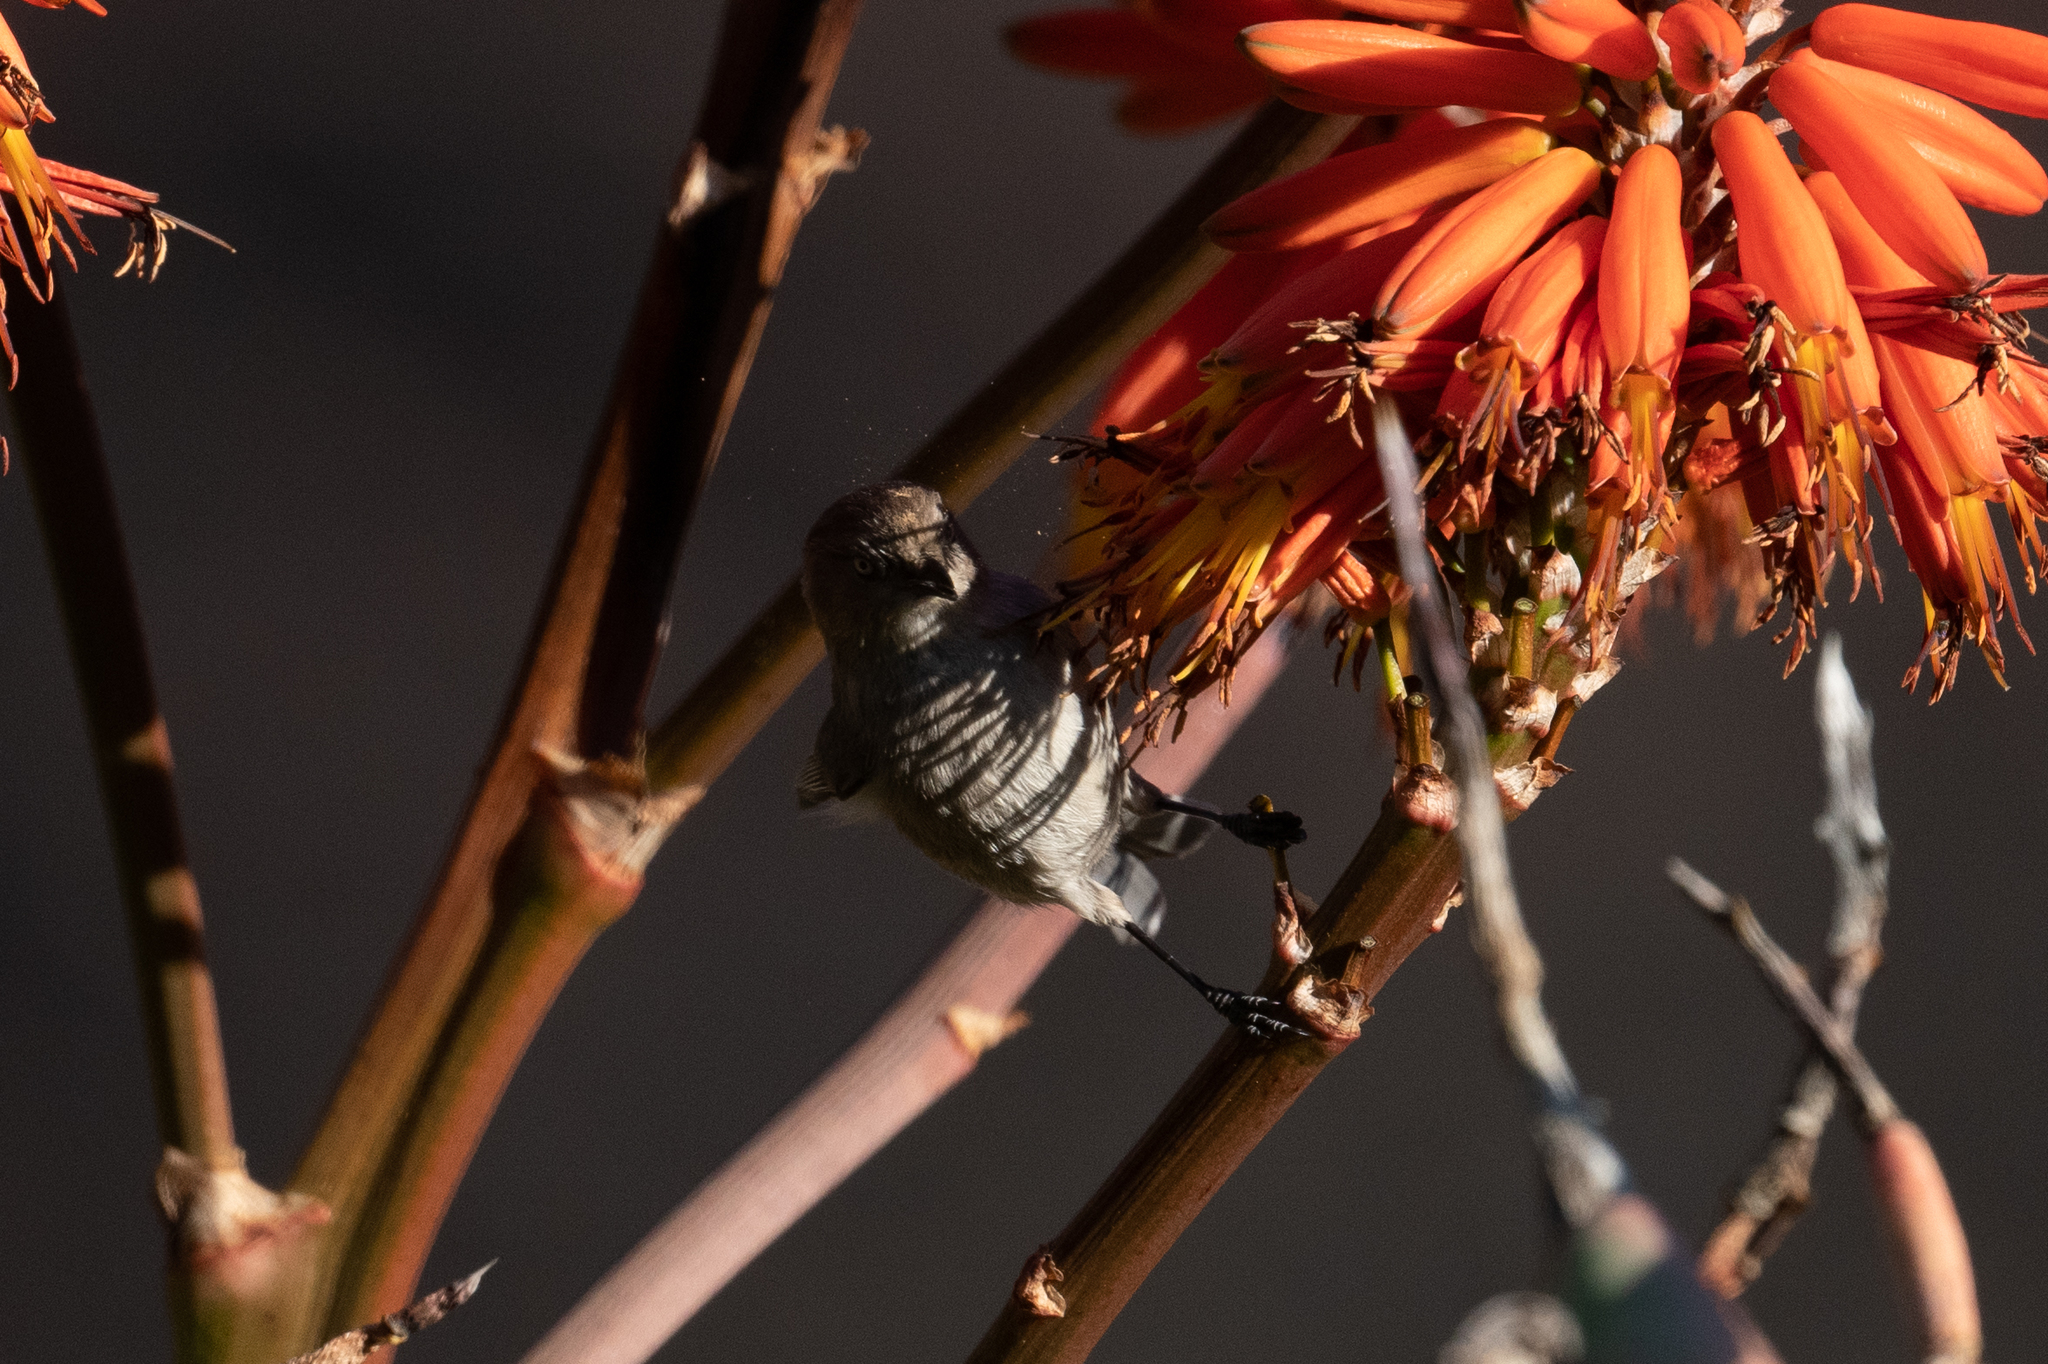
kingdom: Animalia
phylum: Chordata
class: Aves
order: Passeriformes
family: Aegithalidae
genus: Psaltriparus
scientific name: Psaltriparus minimus
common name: American bushtit
